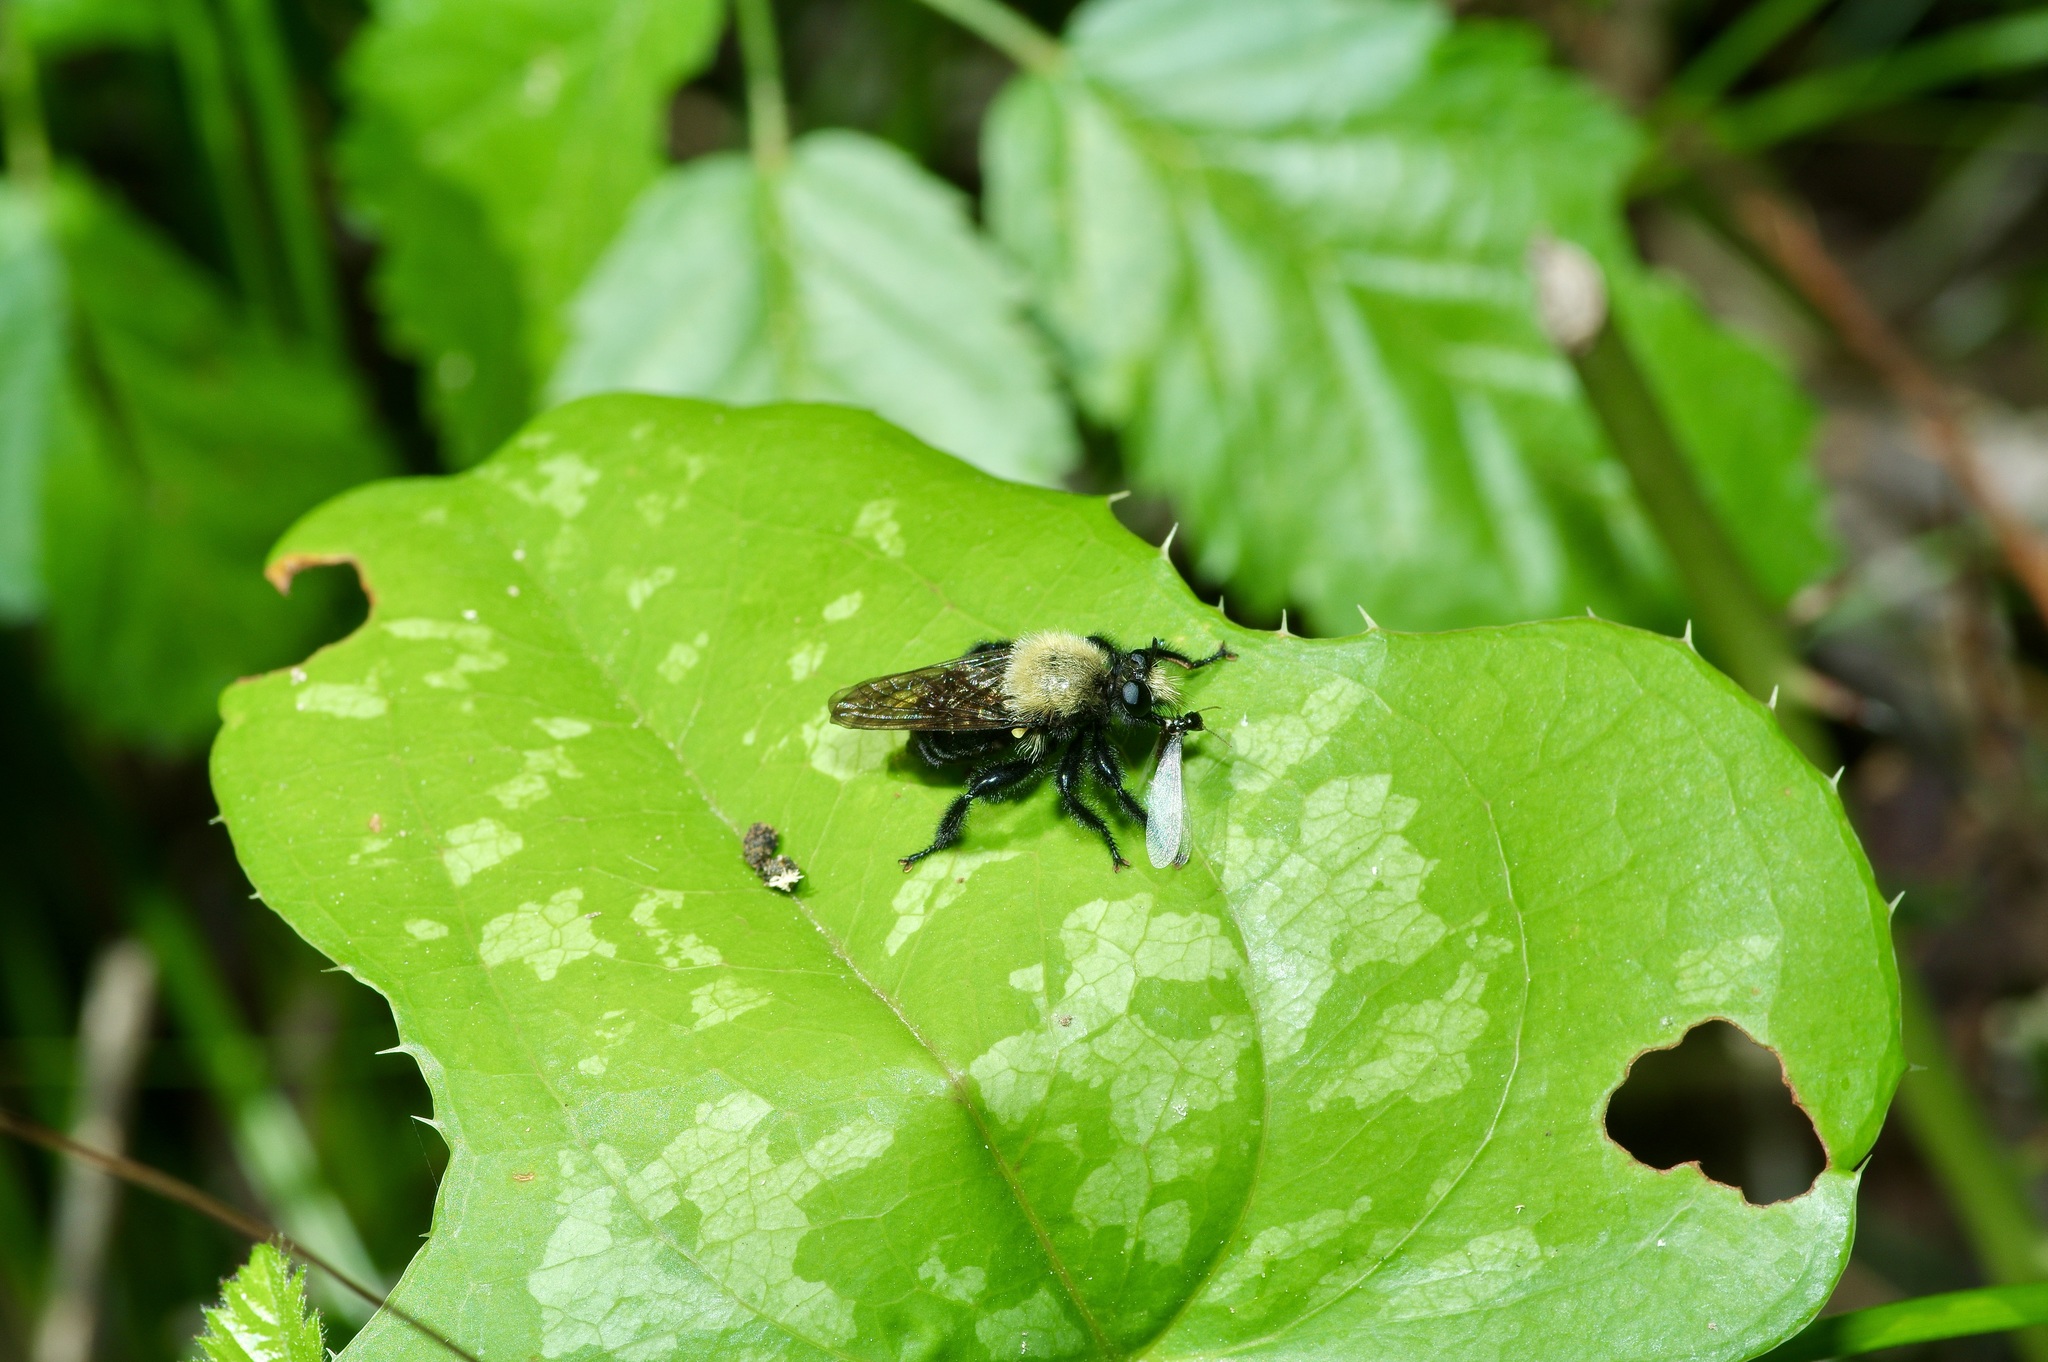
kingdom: Animalia
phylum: Arthropoda
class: Insecta
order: Diptera
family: Asilidae
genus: Laphria
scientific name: Laphria flavicollis
